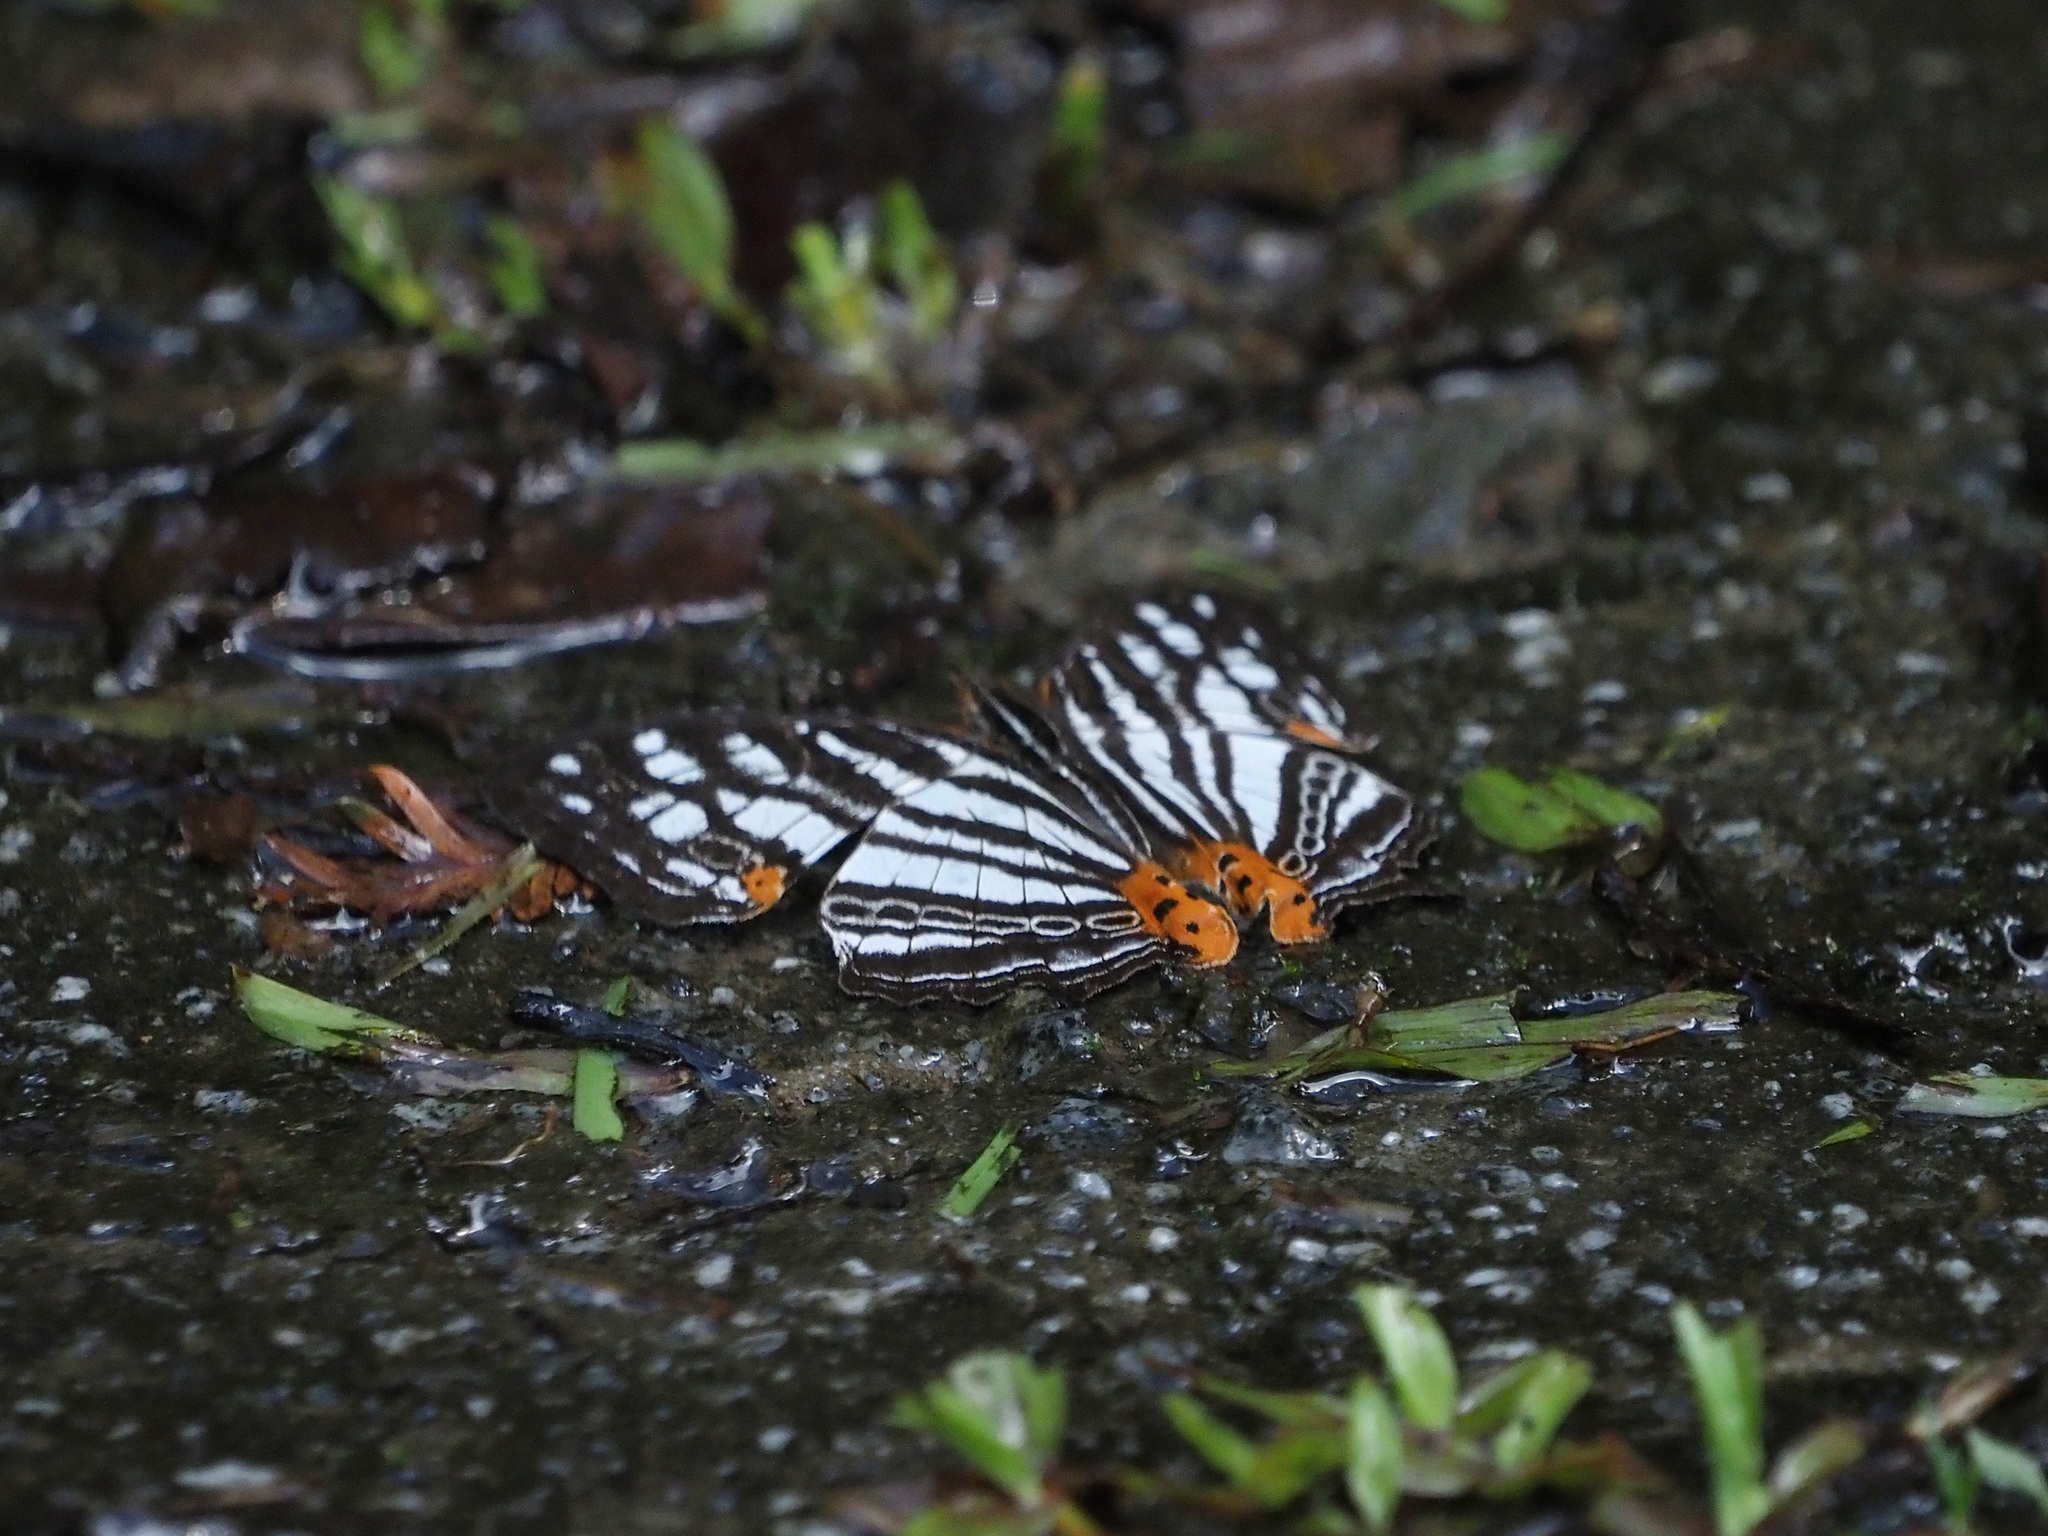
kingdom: Animalia
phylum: Arthropoda
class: Insecta
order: Lepidoptera
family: Nymphalidae
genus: Cyrestis
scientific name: Cyrestis maenalis
